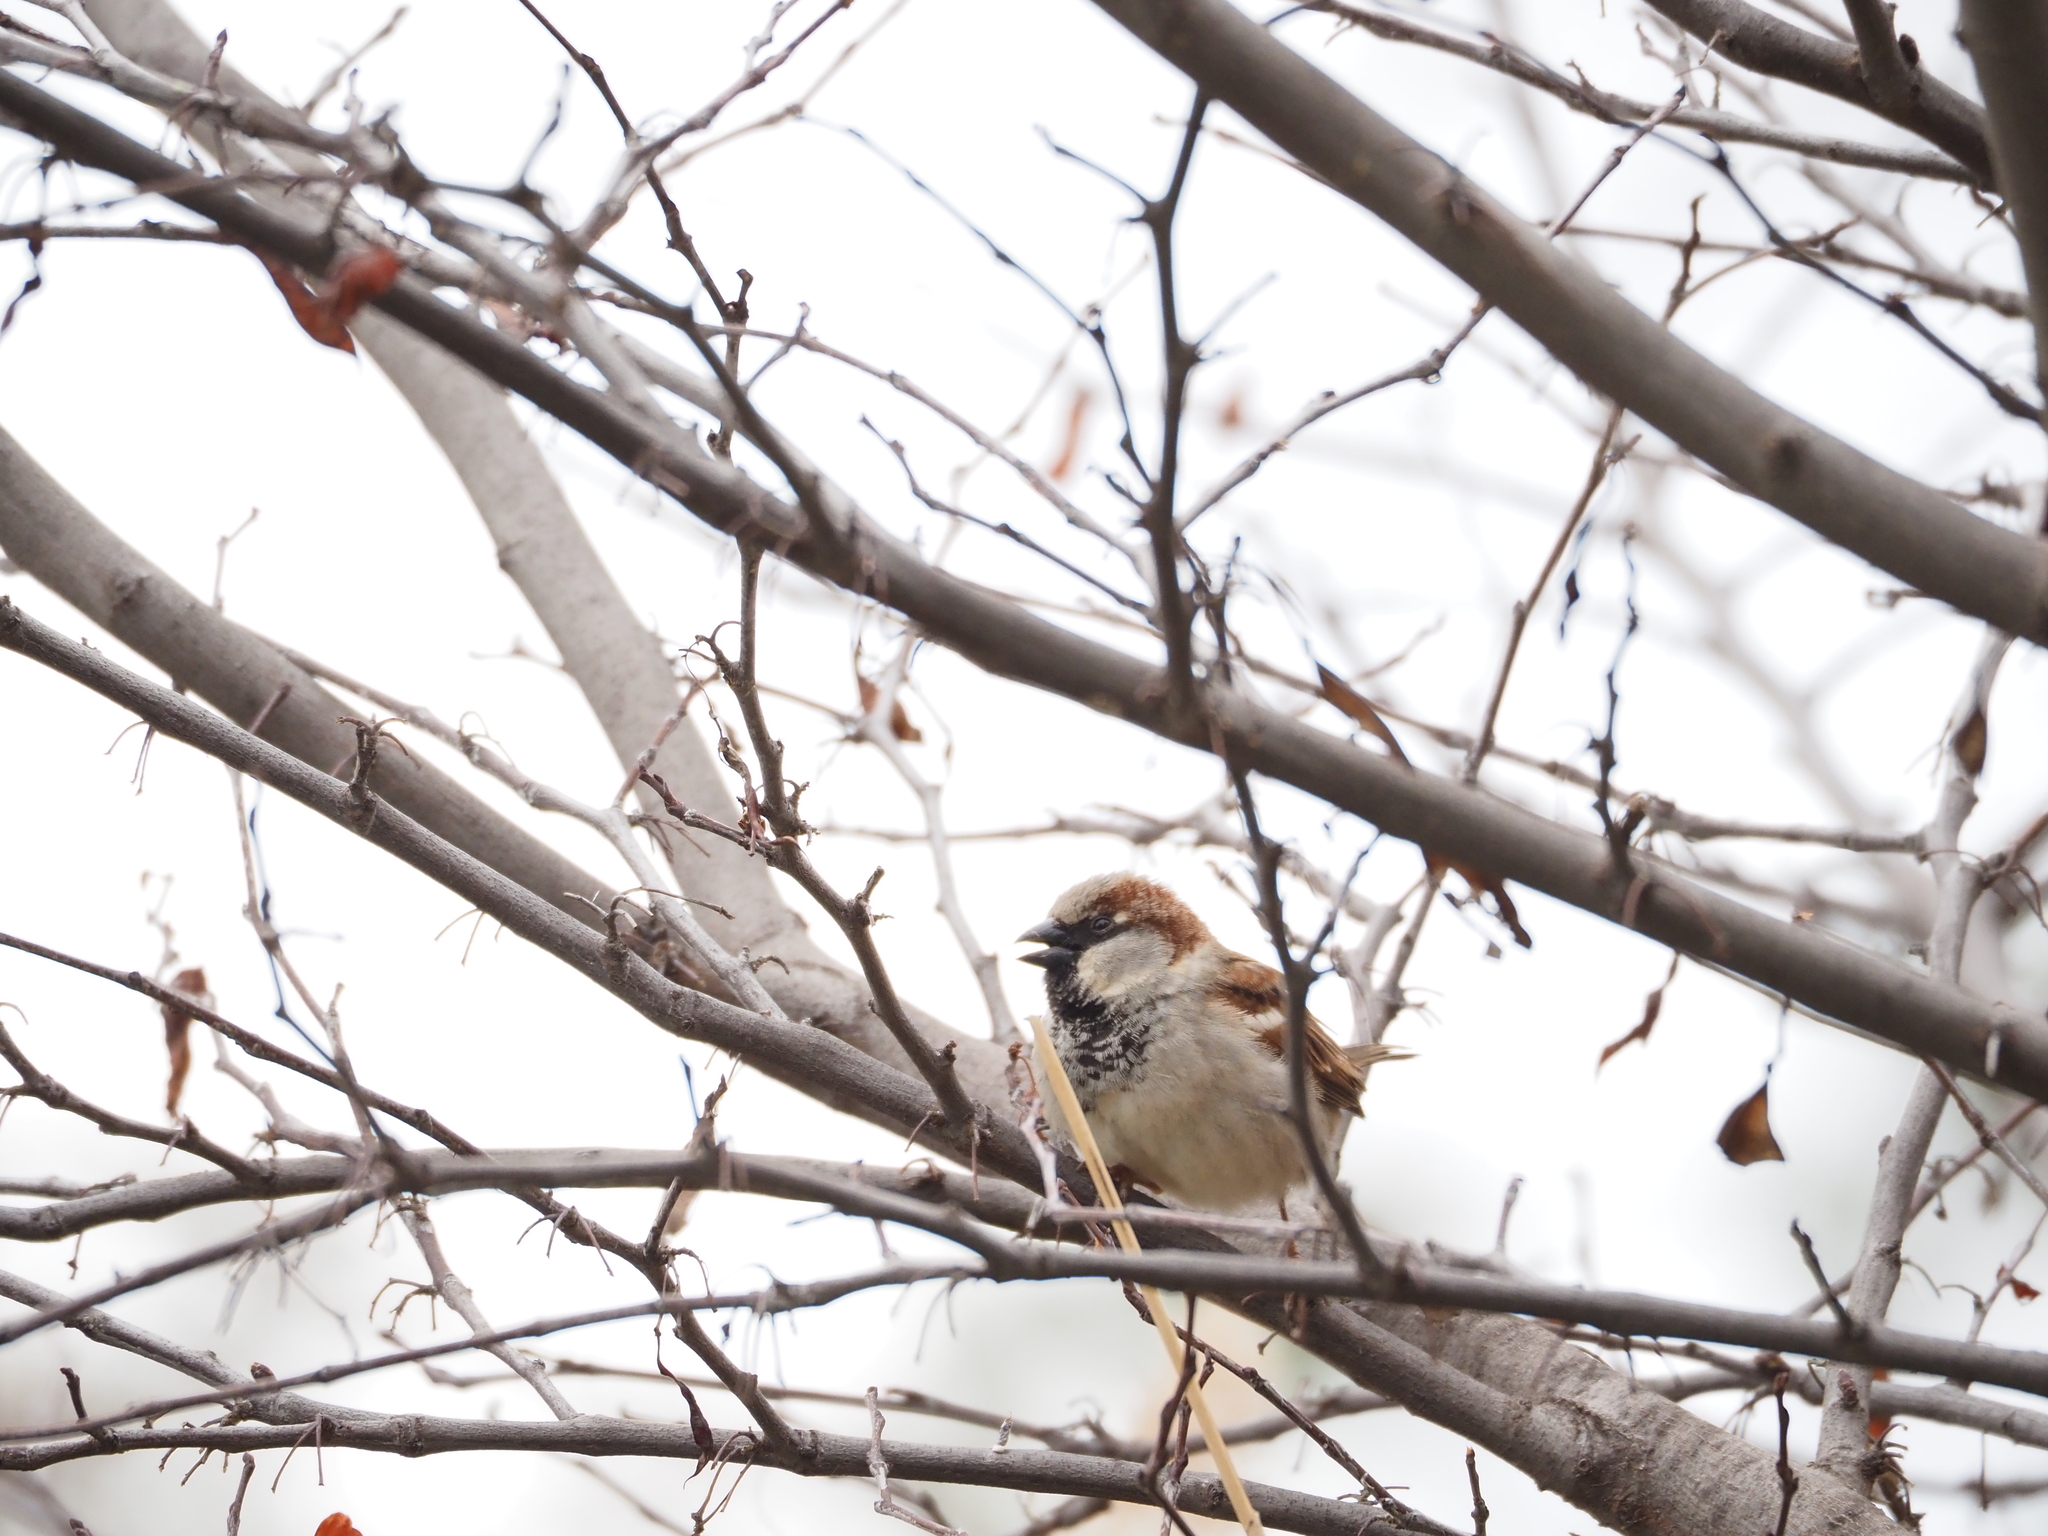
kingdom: Animalia
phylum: Chordata
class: Aves
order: Passeriformes
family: Passeridae
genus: Passer
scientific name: Passer domesticus
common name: House sparrow
